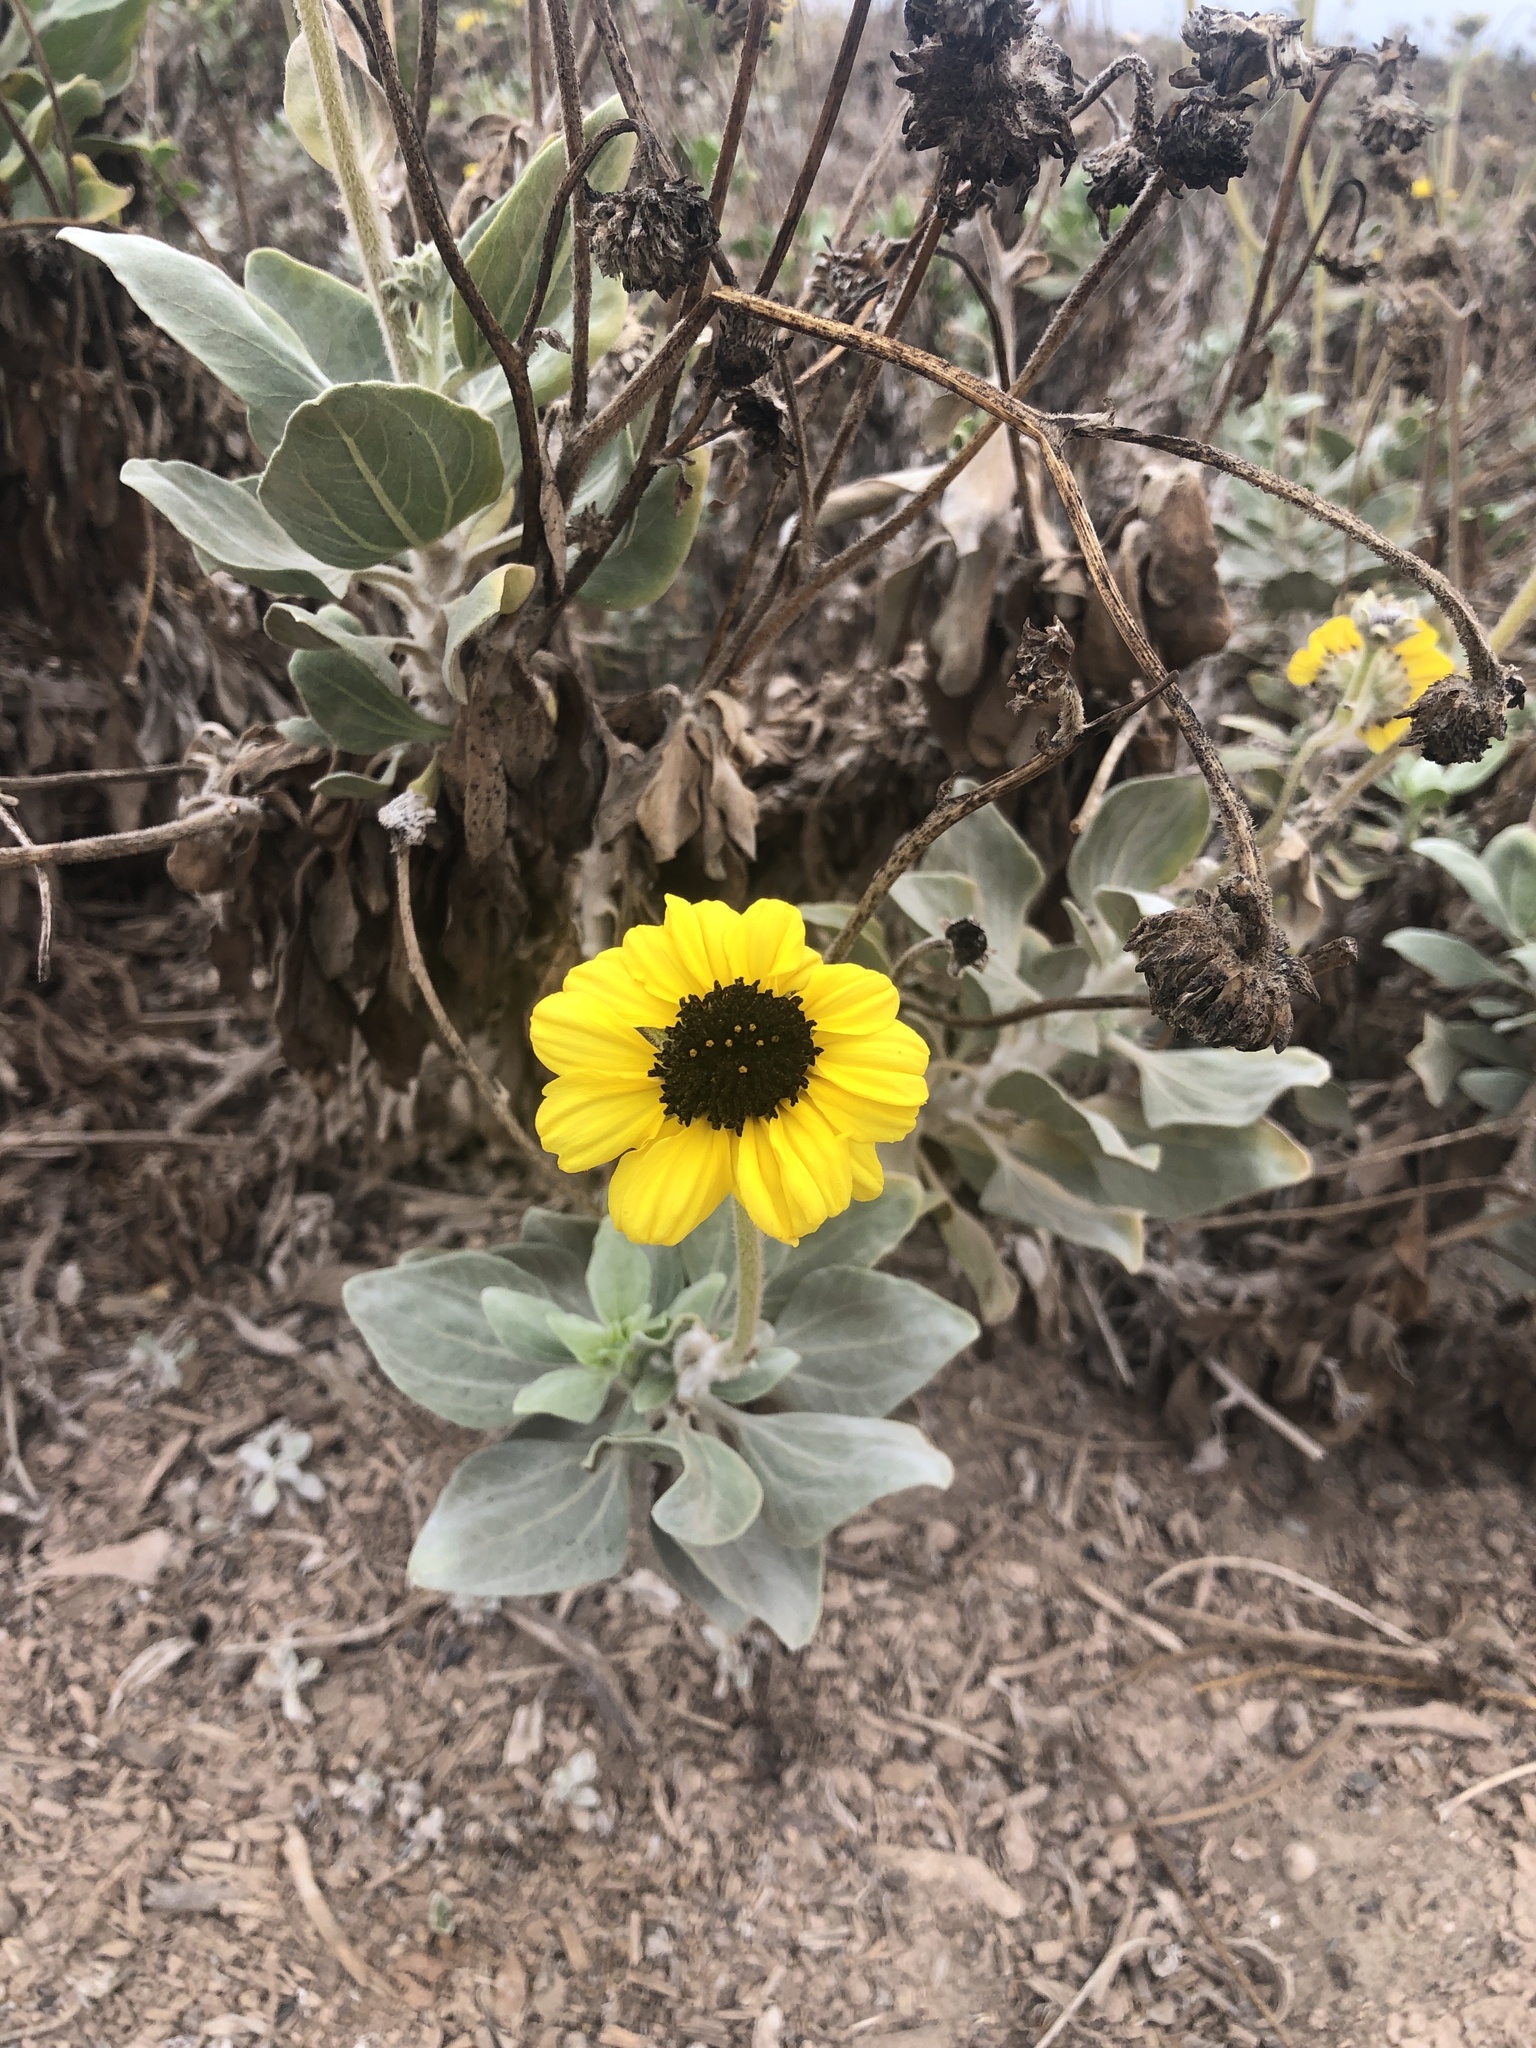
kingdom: Plantae
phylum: Tracheophyta
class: Magnoliopsida
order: Asterales
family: Asteraceae
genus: Encelia
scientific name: Encelia canescens
